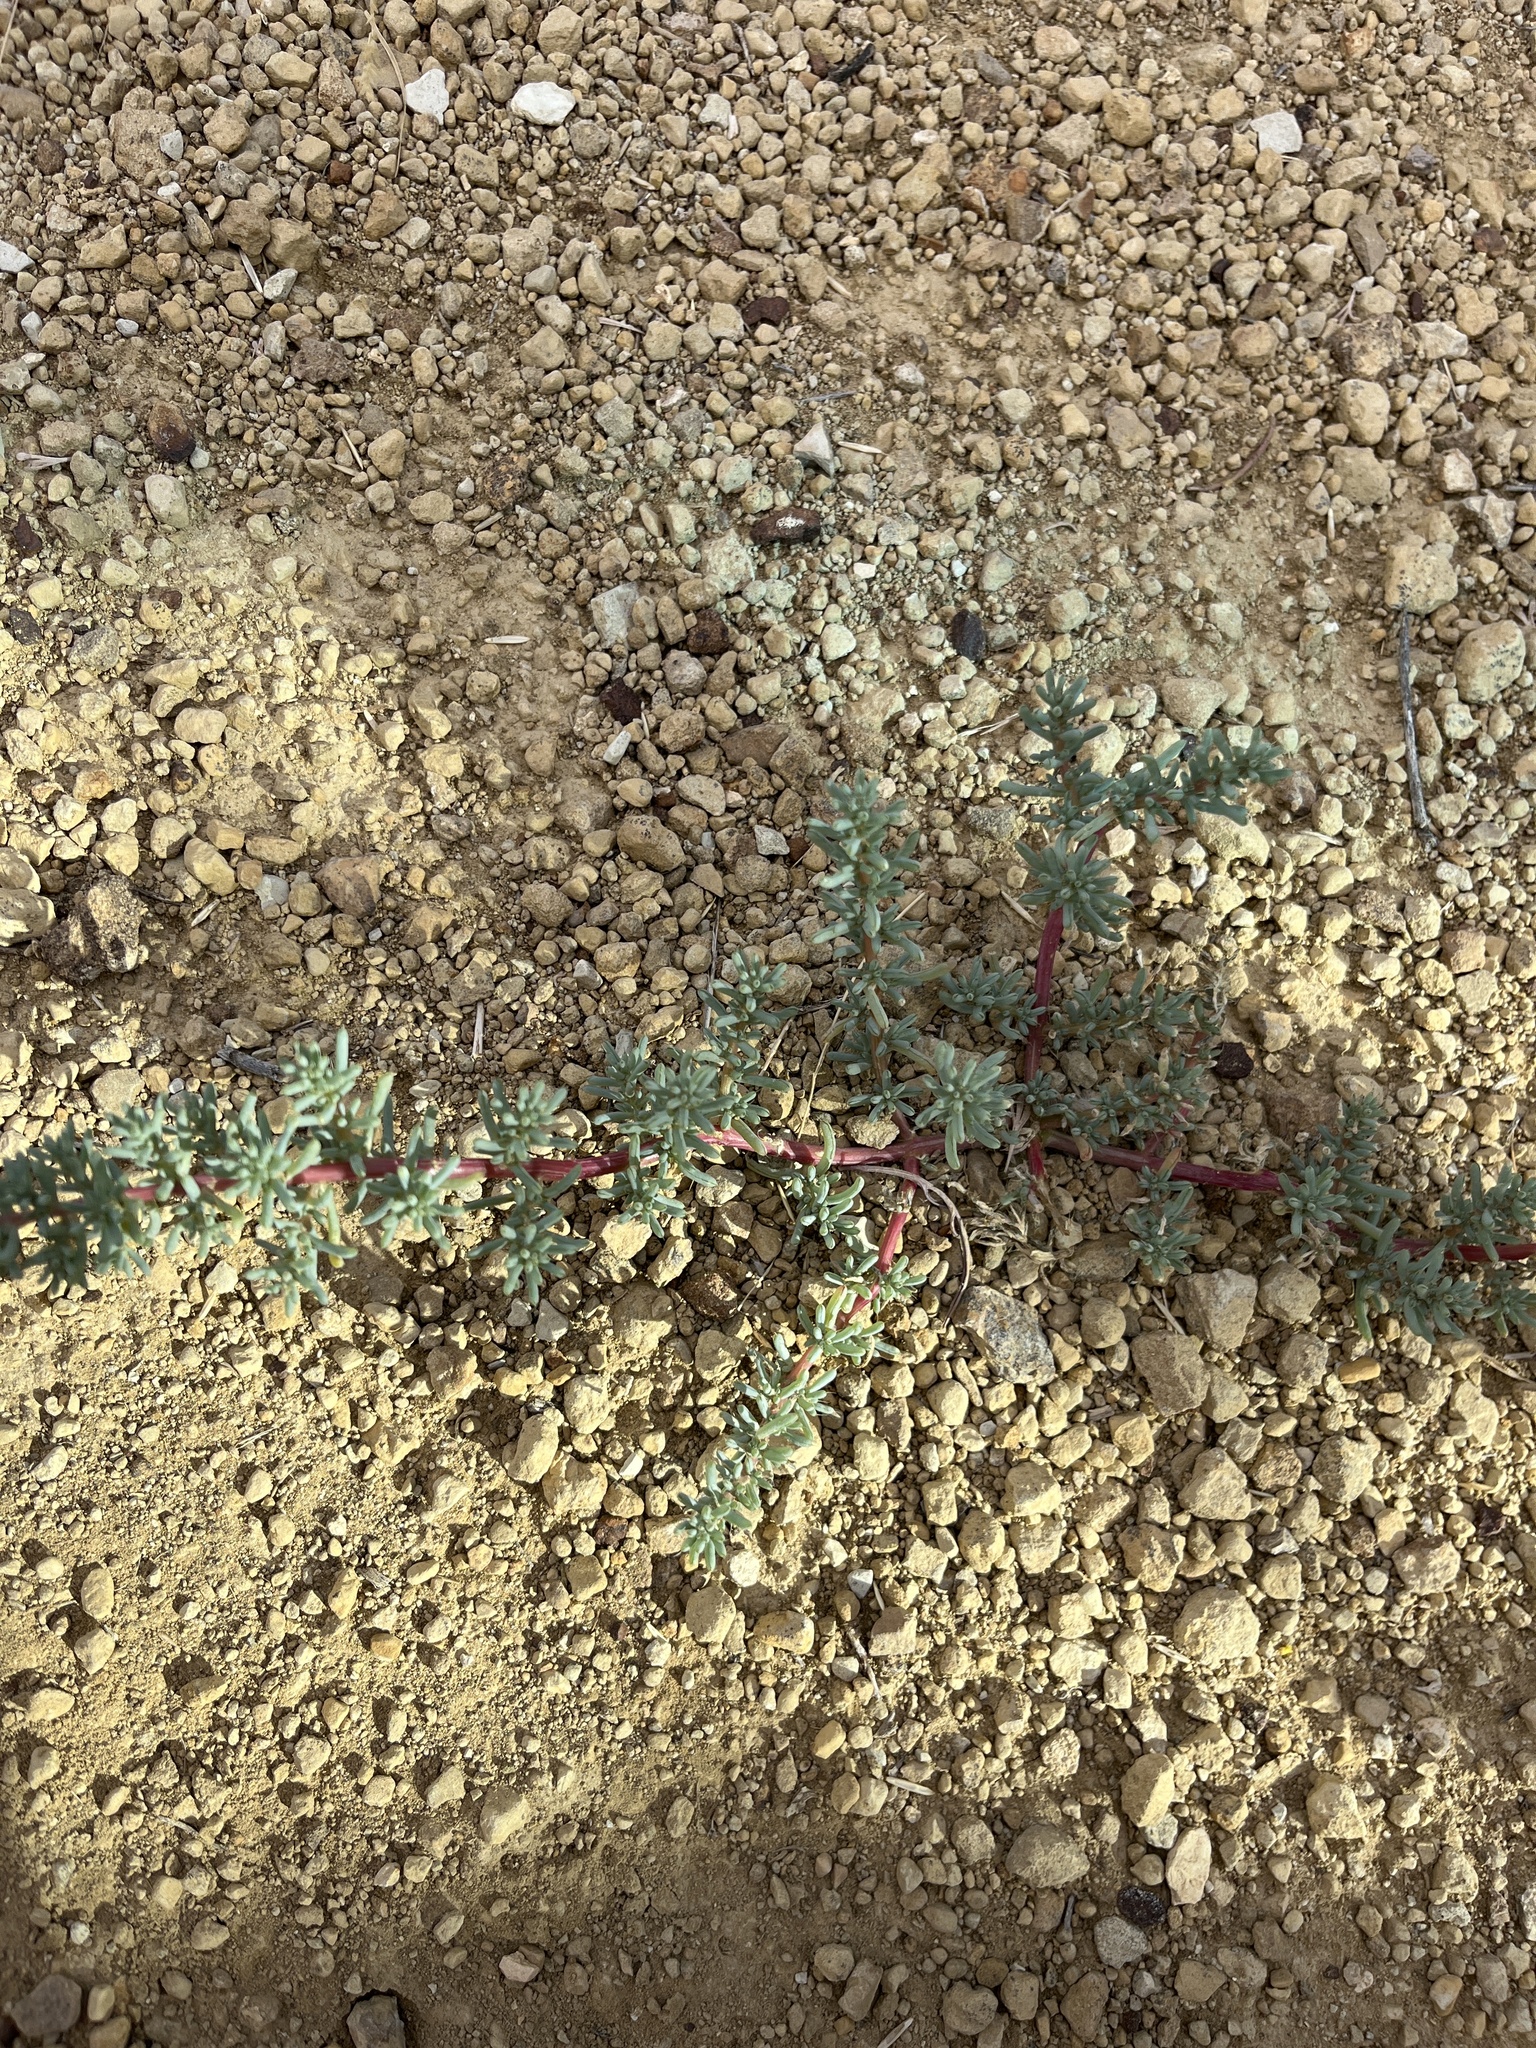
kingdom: Plantae
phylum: Tracheophyta
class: Magnoliopsida
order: Caryophyllales
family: Amaranthaceae
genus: Halogeton
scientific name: Halogeton glomeratus
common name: Saltlover
